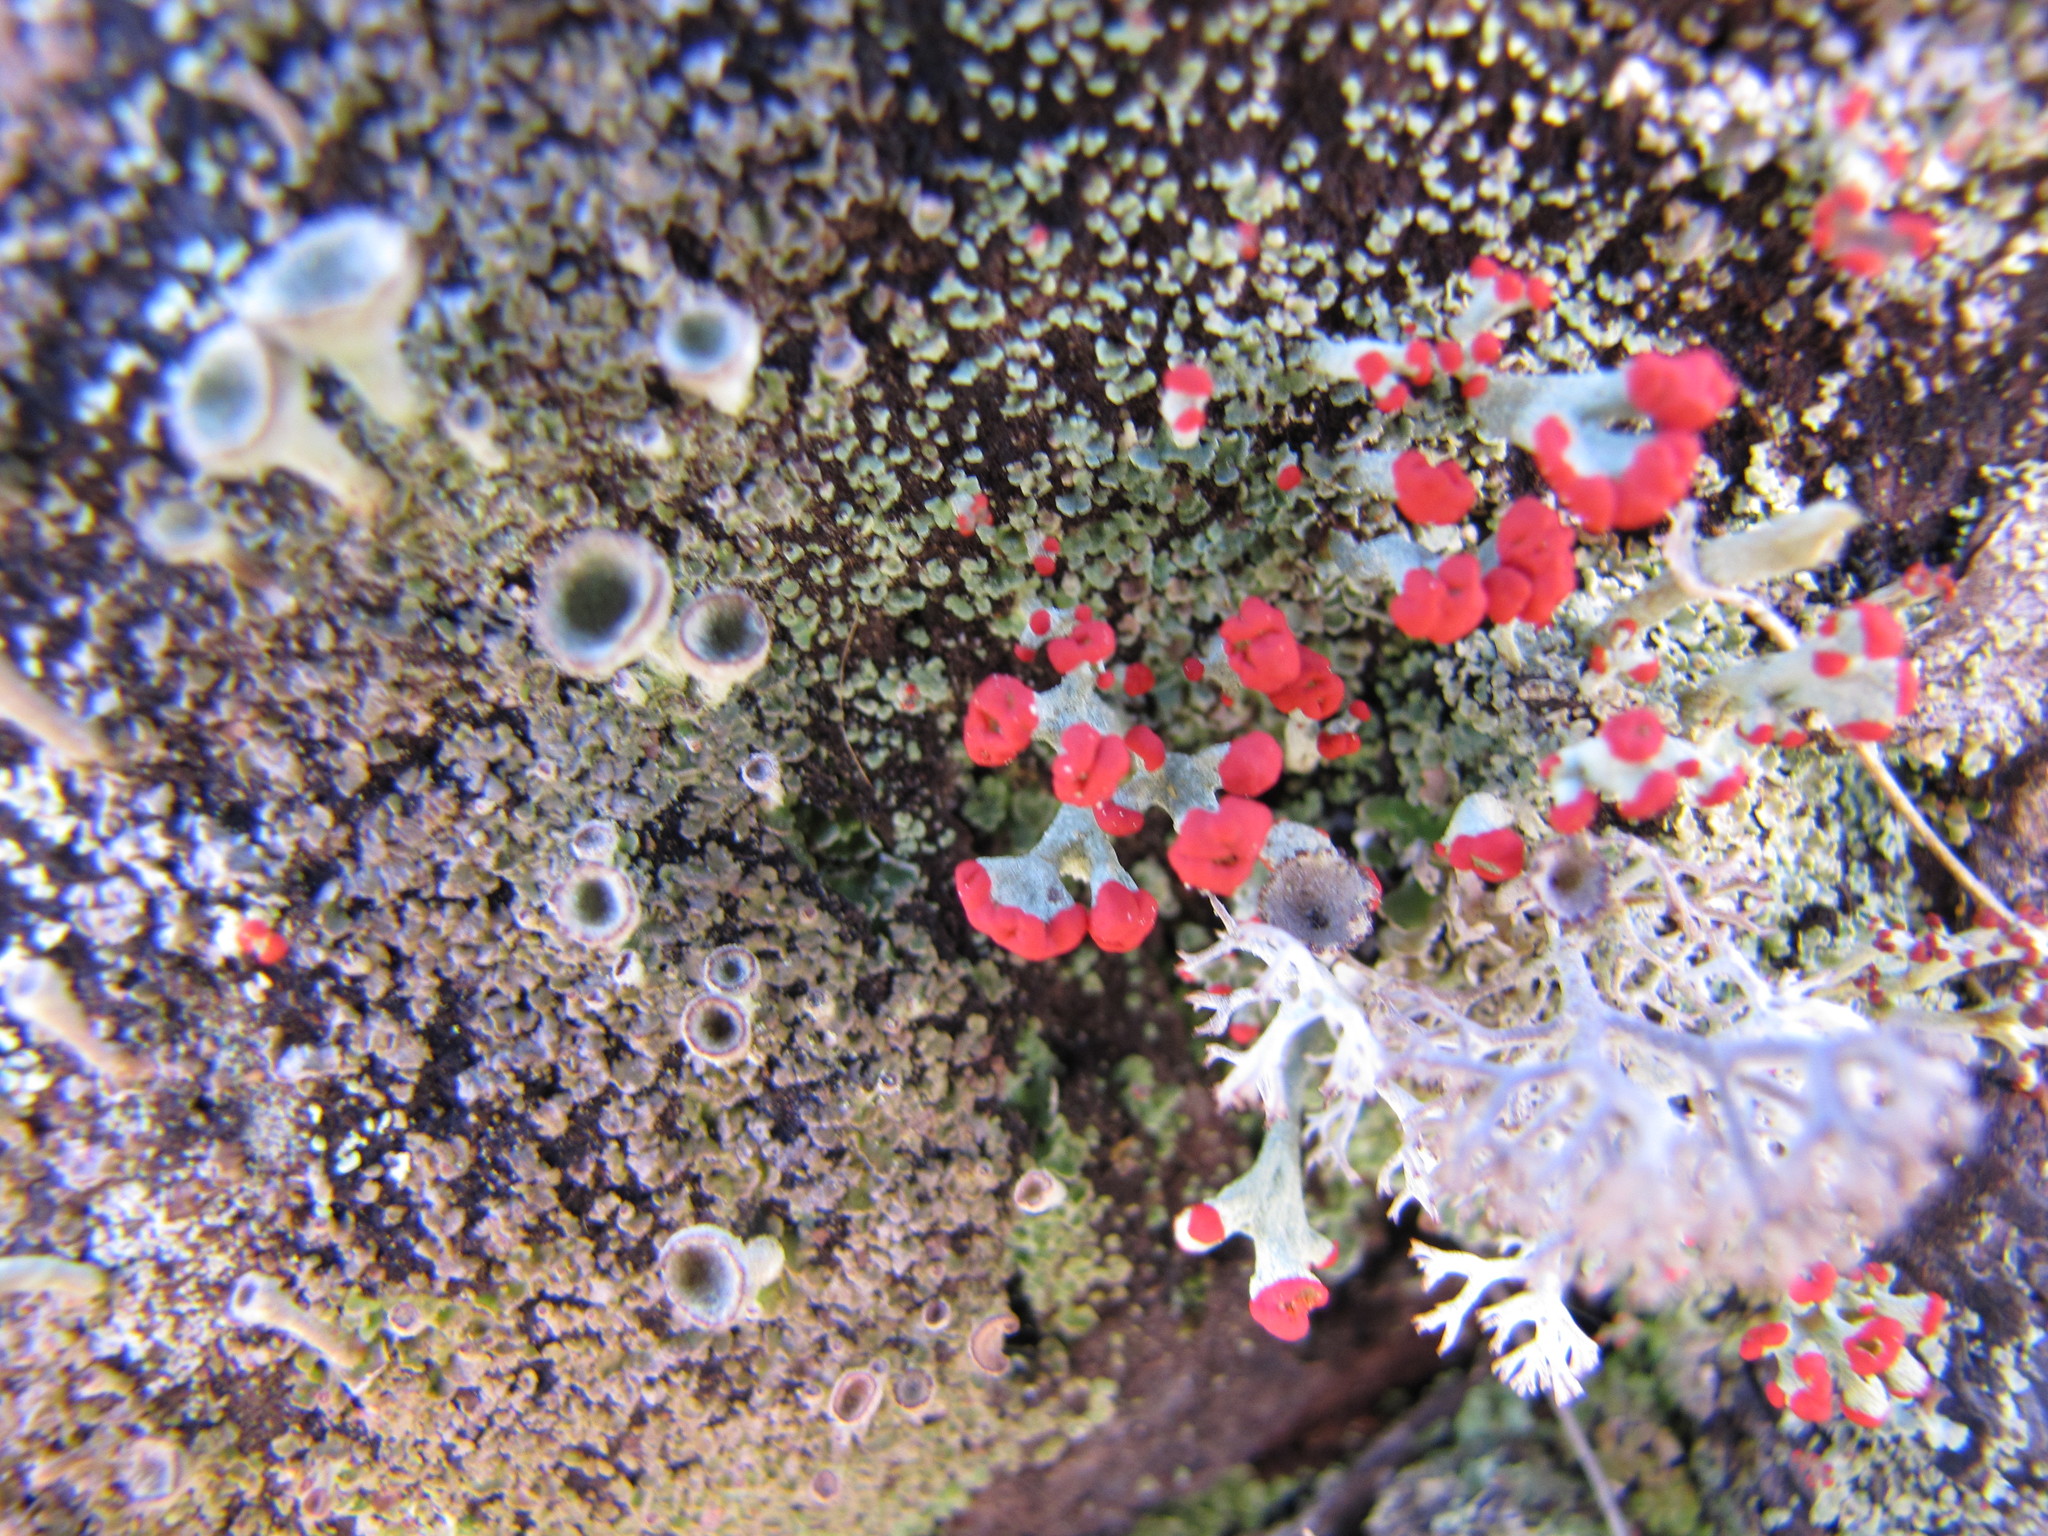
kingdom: Fungi
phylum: Ascomycota
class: Lecanoromycetes
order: Lecanorales
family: Cladoniaceae
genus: Cladonia
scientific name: Cladonia cristatella
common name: British soldier lichen
